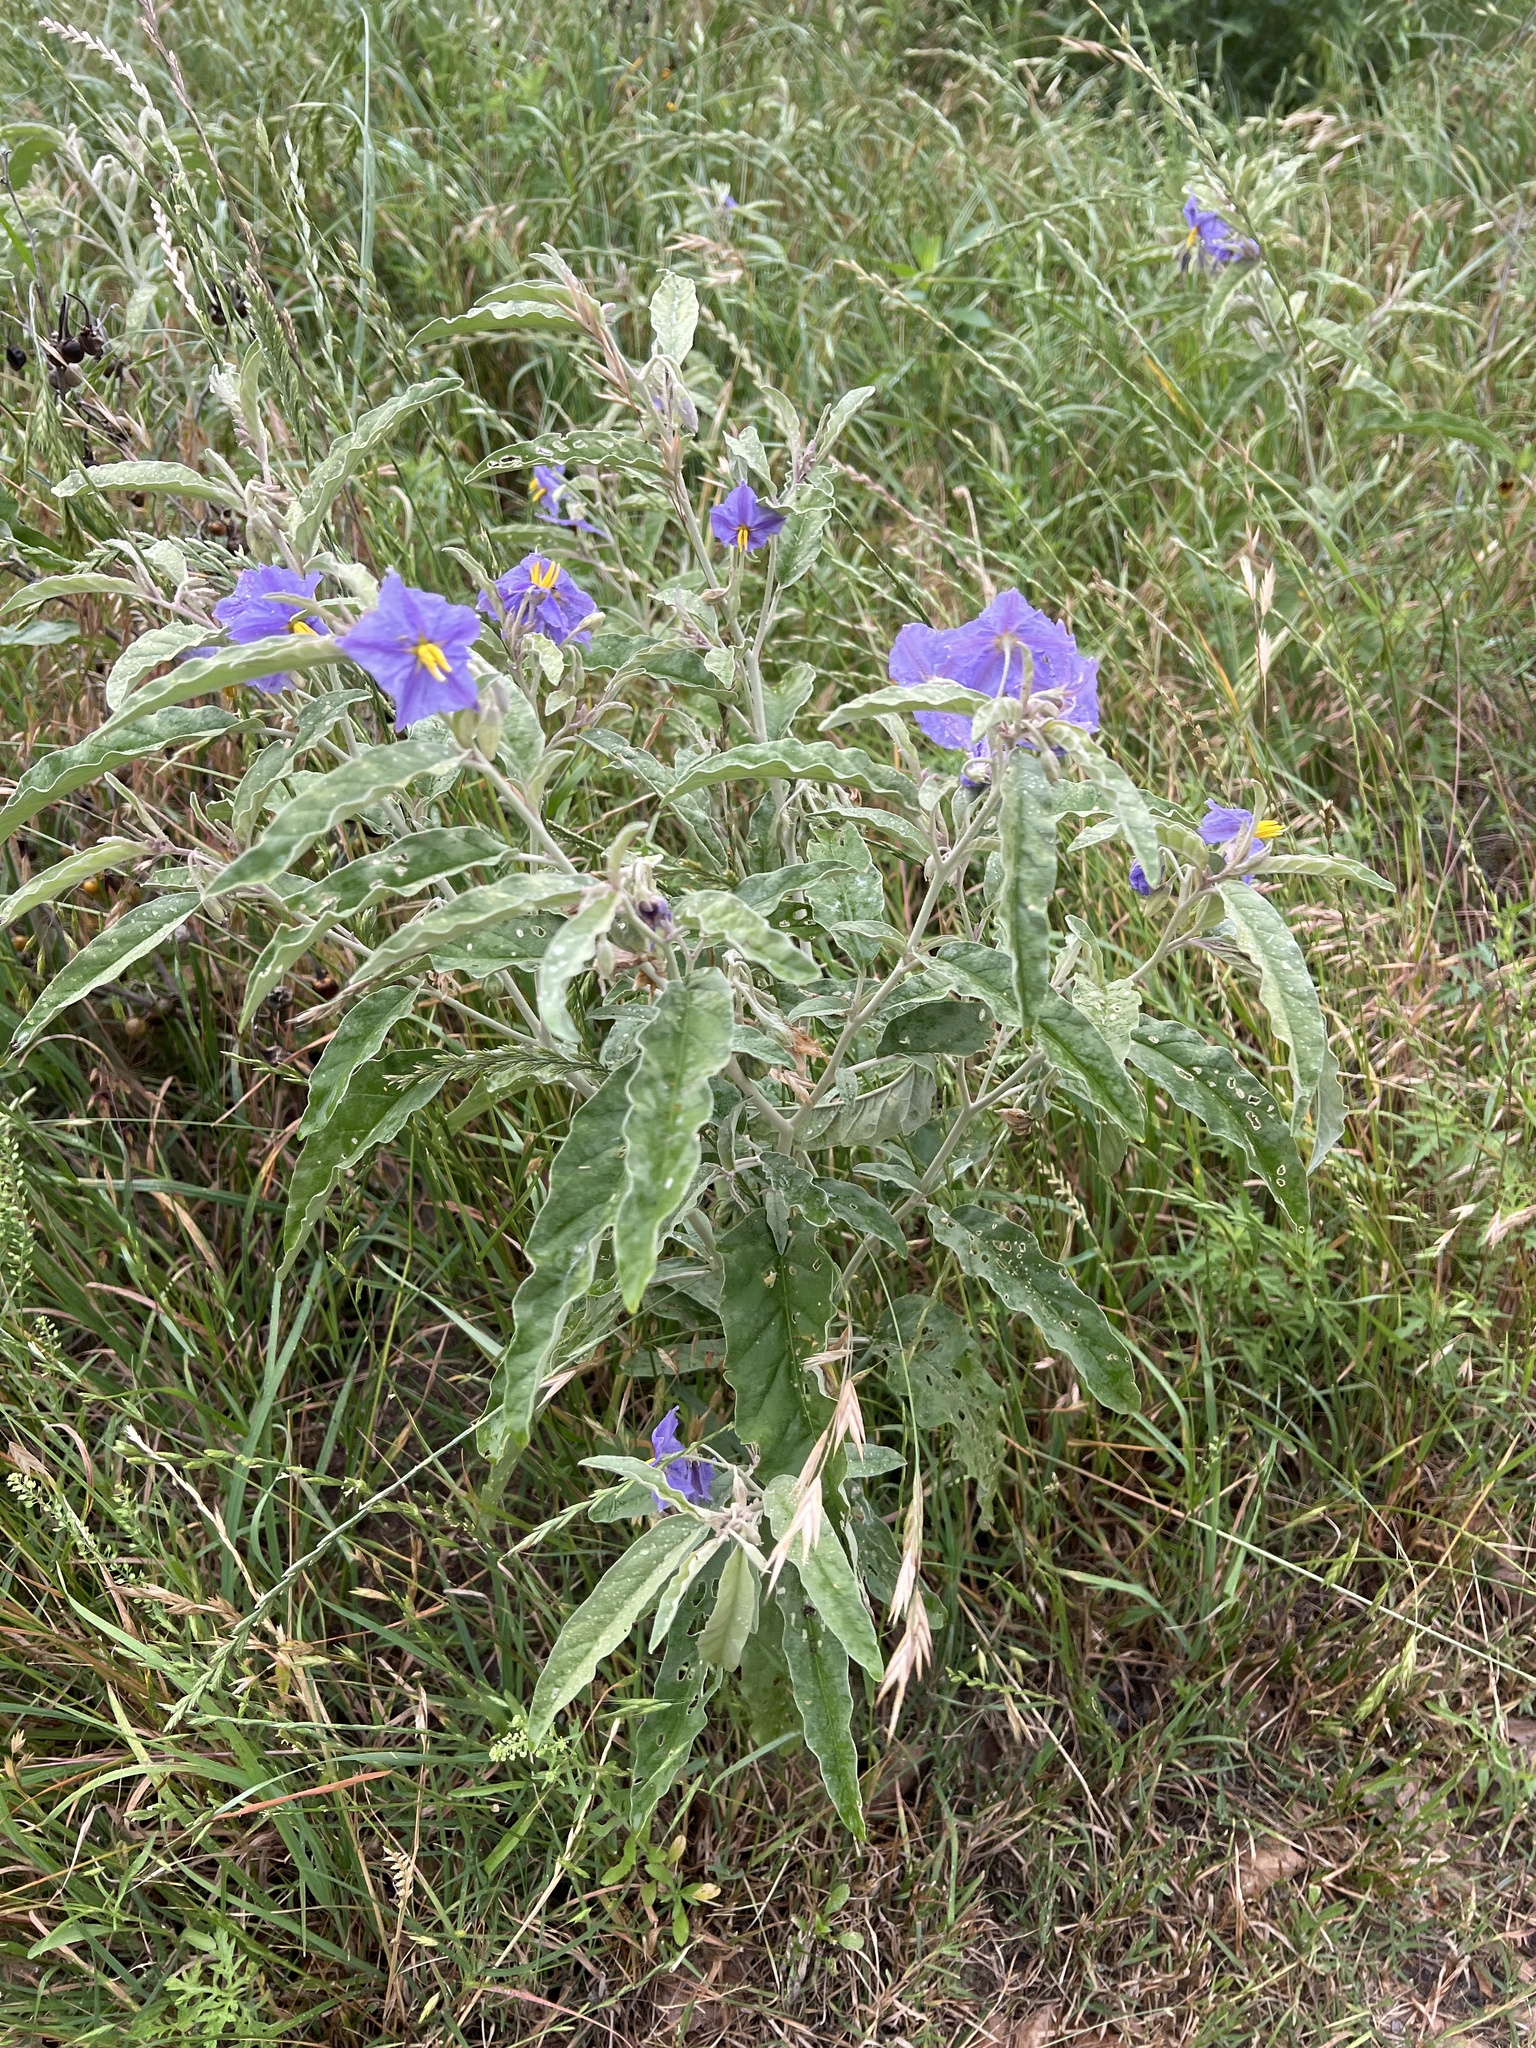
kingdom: Plantae
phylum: Tracheophyta
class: Magnoliopsida
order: Solanales
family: Solanaceae
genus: Solanum
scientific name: Solanum elaeagnifolium
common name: Silverleaf nightshade
